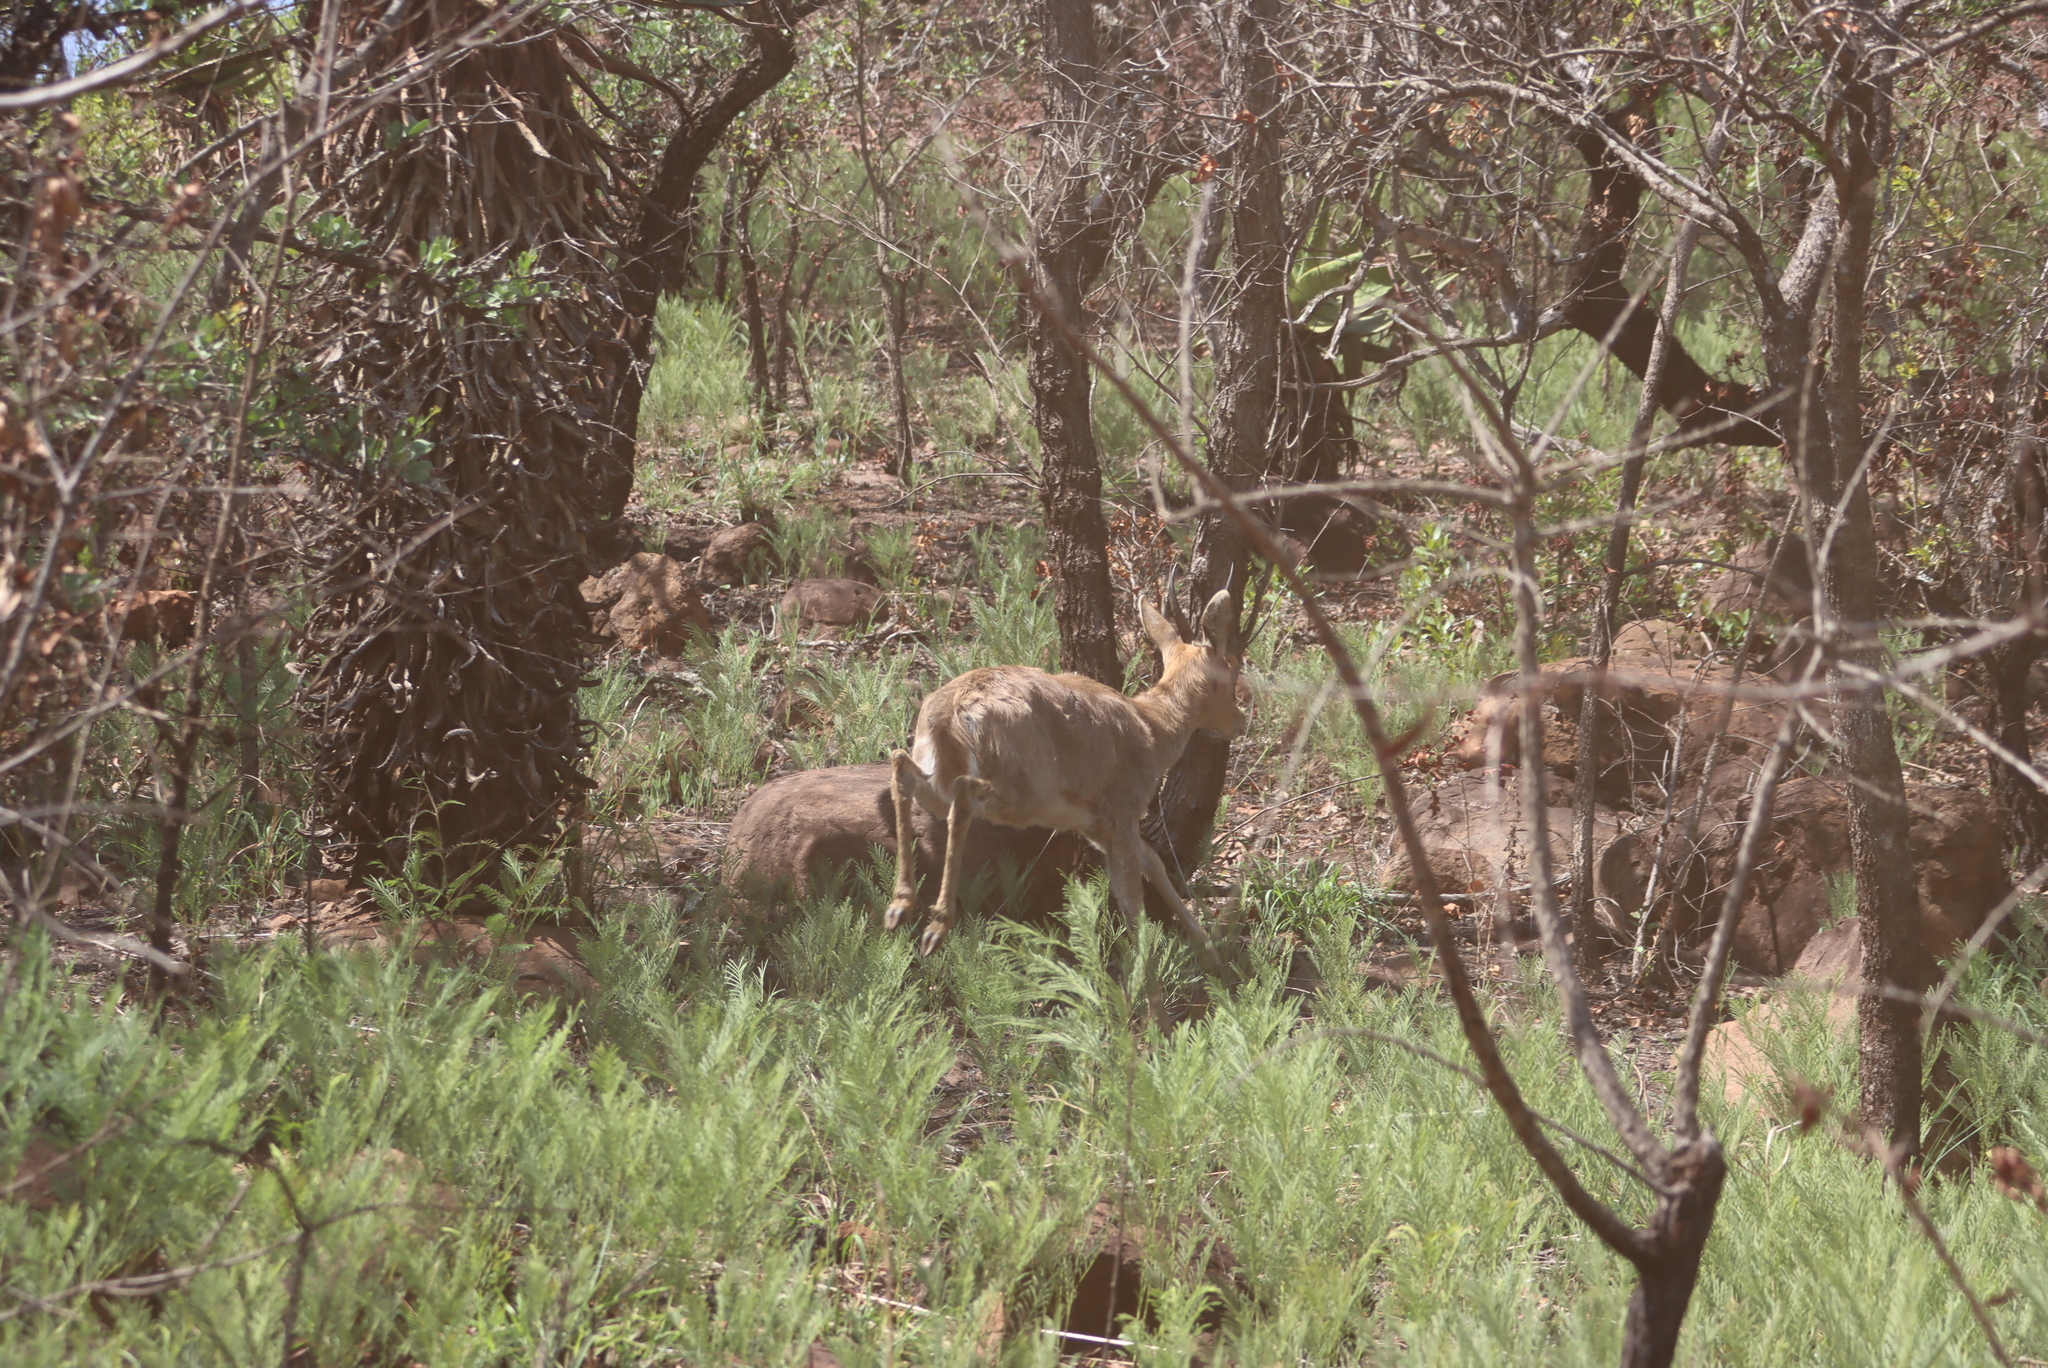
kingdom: Animalia
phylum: Chordata
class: Mammalia
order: Artiodactyla
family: Bovidae
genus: Redunca
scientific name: Redunca fulvorufula
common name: Mountain reedbuck
